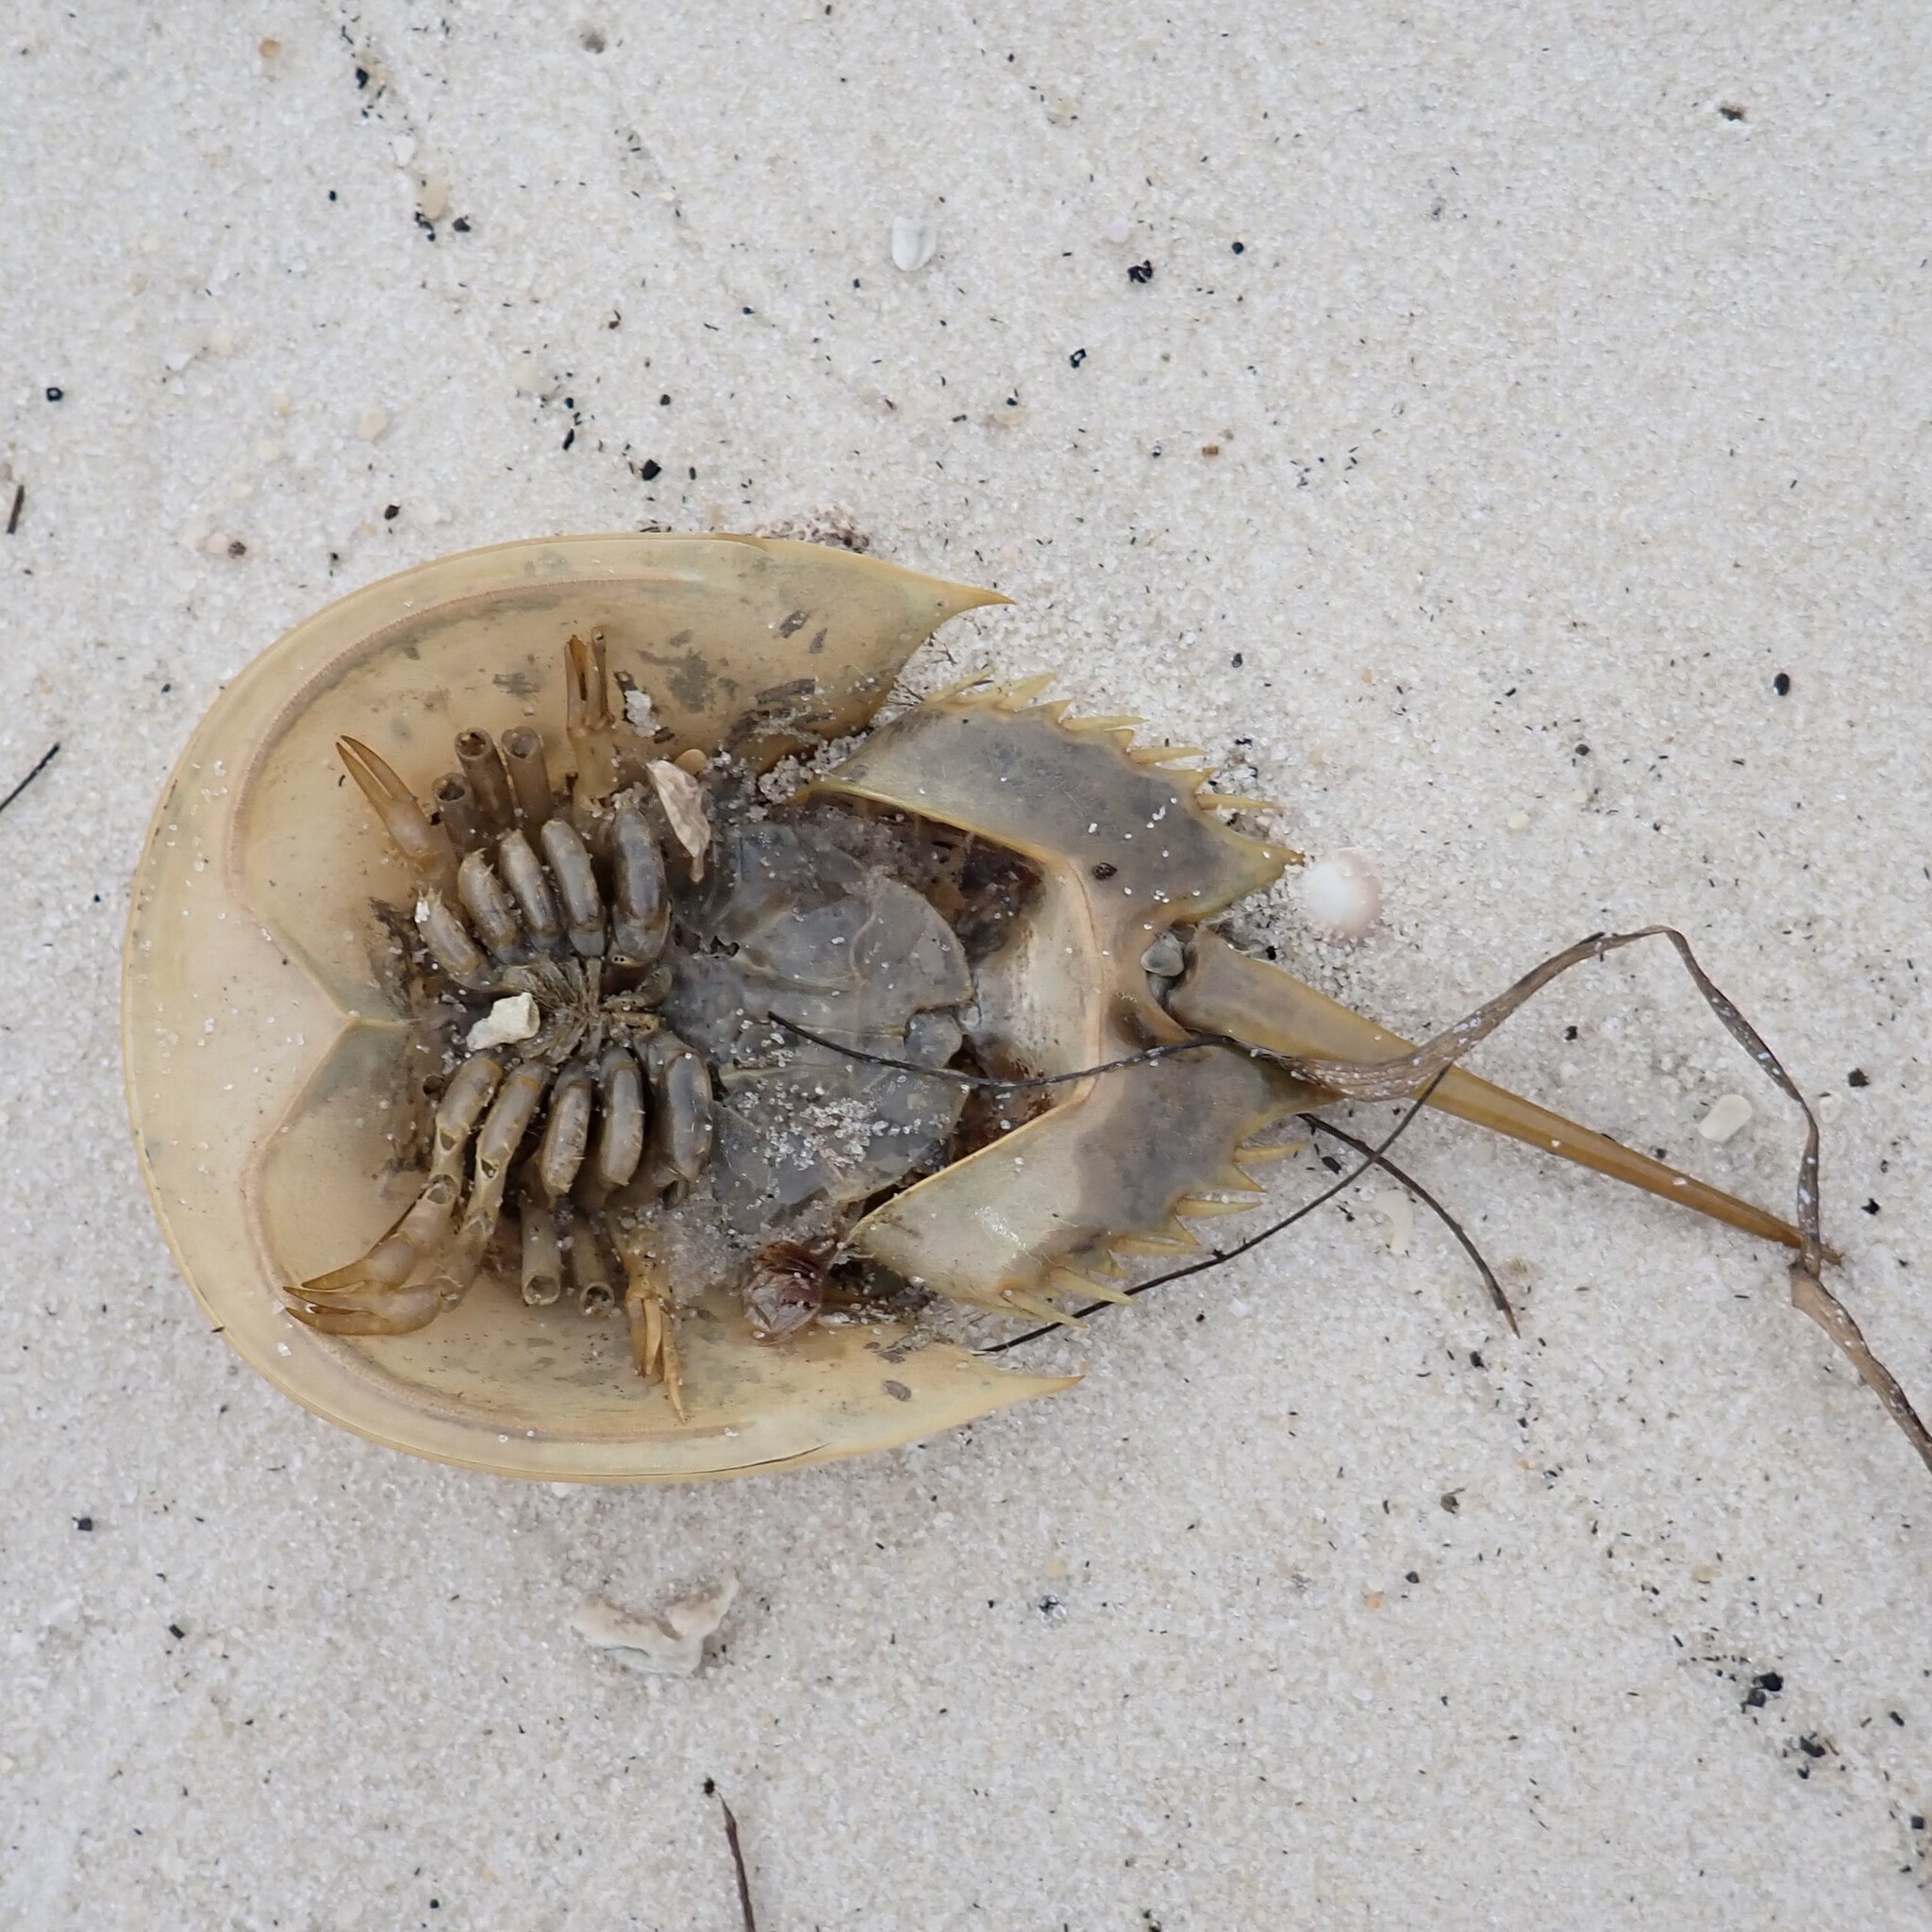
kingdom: Animalia
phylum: Arthropoda
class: Merostomata
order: Xiphosurida
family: Limulidae
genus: Limulus
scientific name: Limulus polyphemus
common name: Horseshoe crab
